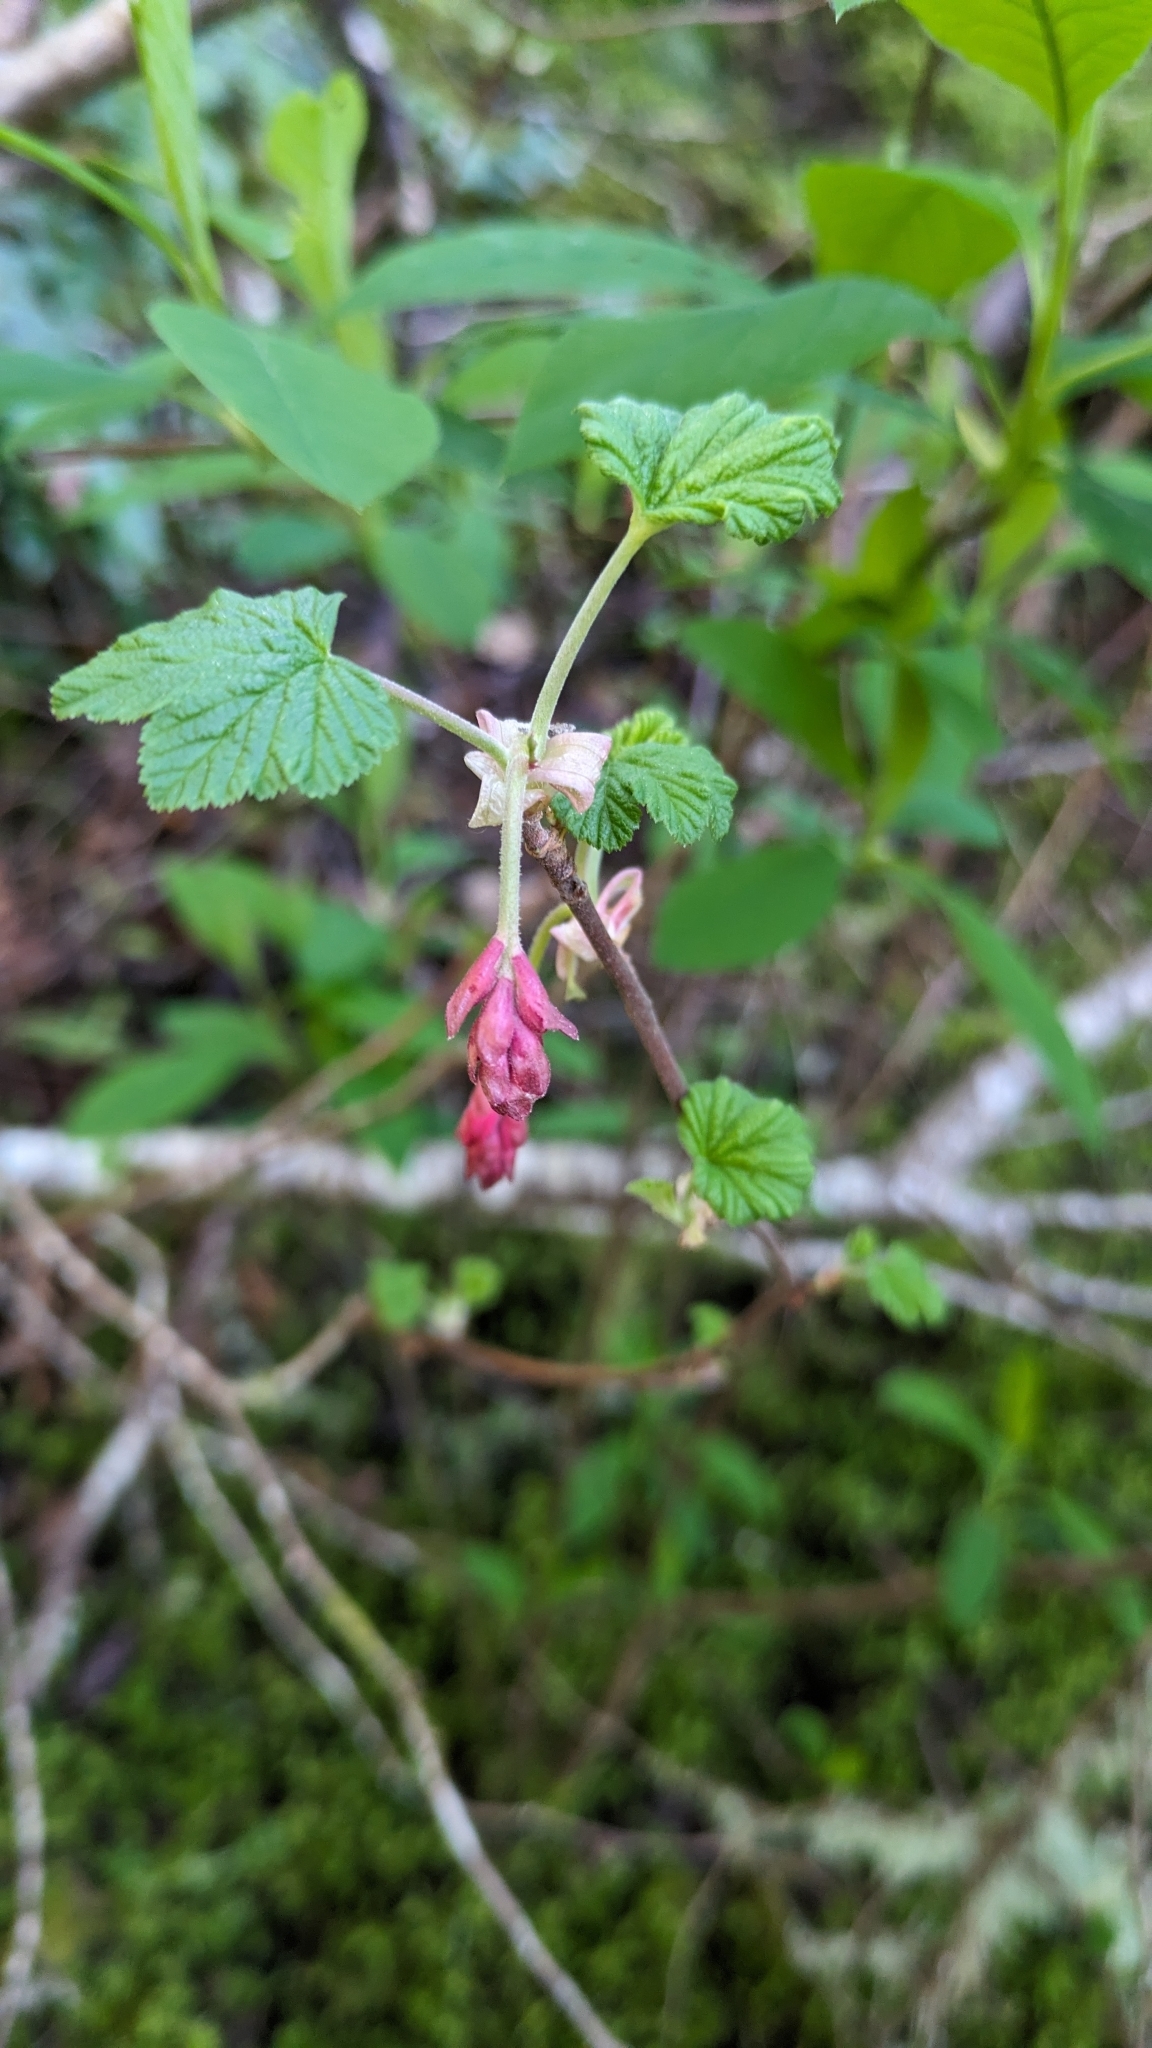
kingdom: Plantae
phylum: Tracheophyta
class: Magnoliopsida
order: Saxifragales
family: Grossulariaceae
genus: Ribes
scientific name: Ribes sanguineum
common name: Flowering currant
